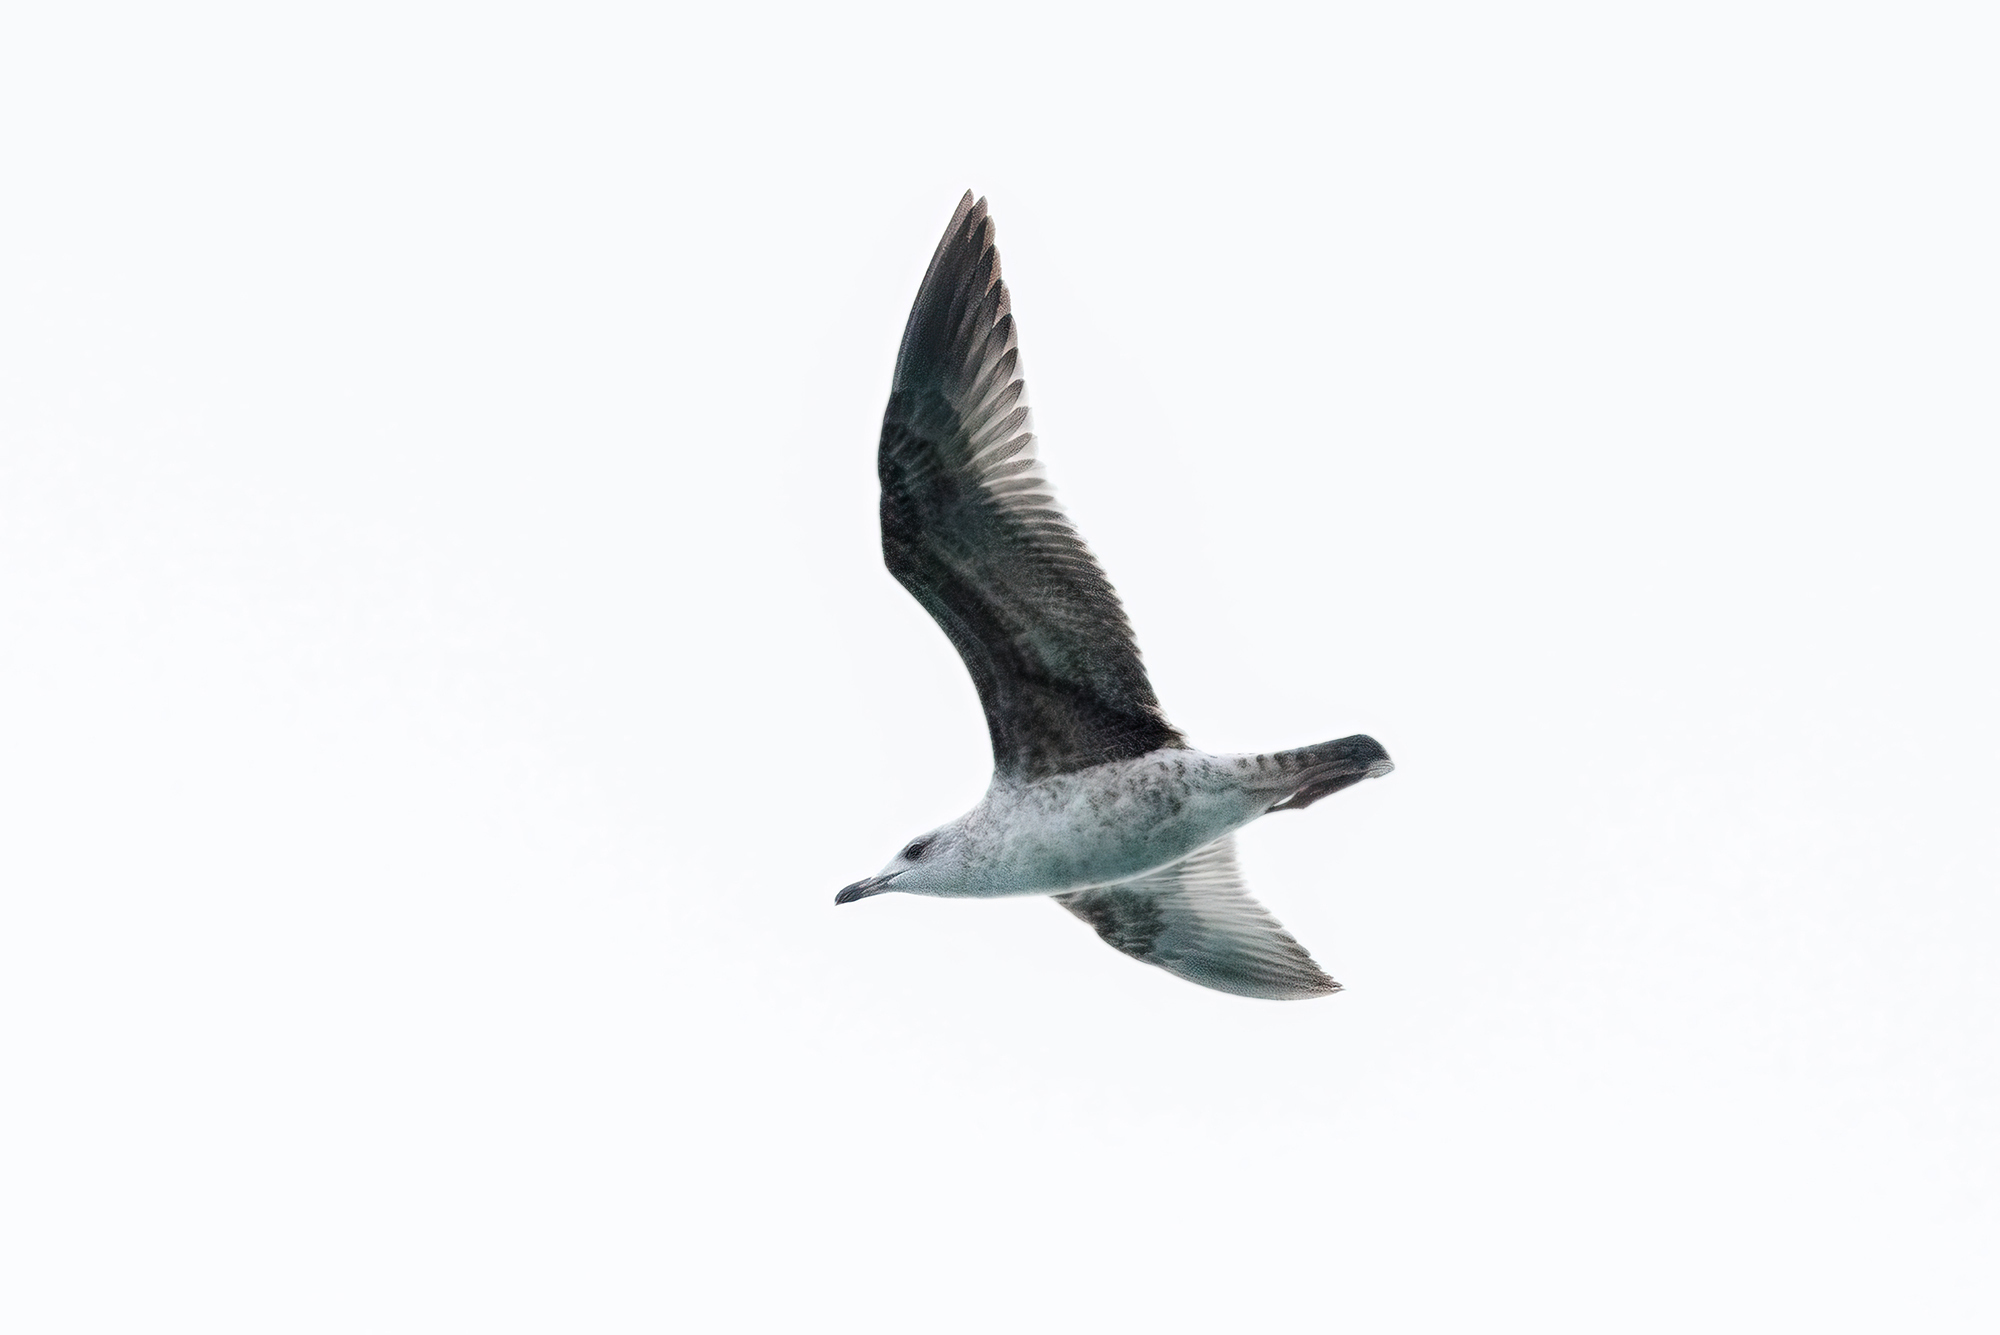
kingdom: Animalia
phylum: Chordata
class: Aves
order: Charadriiformes
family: Laridae
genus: Larus
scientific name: Larus michahellis
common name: Yellow-legged gull
